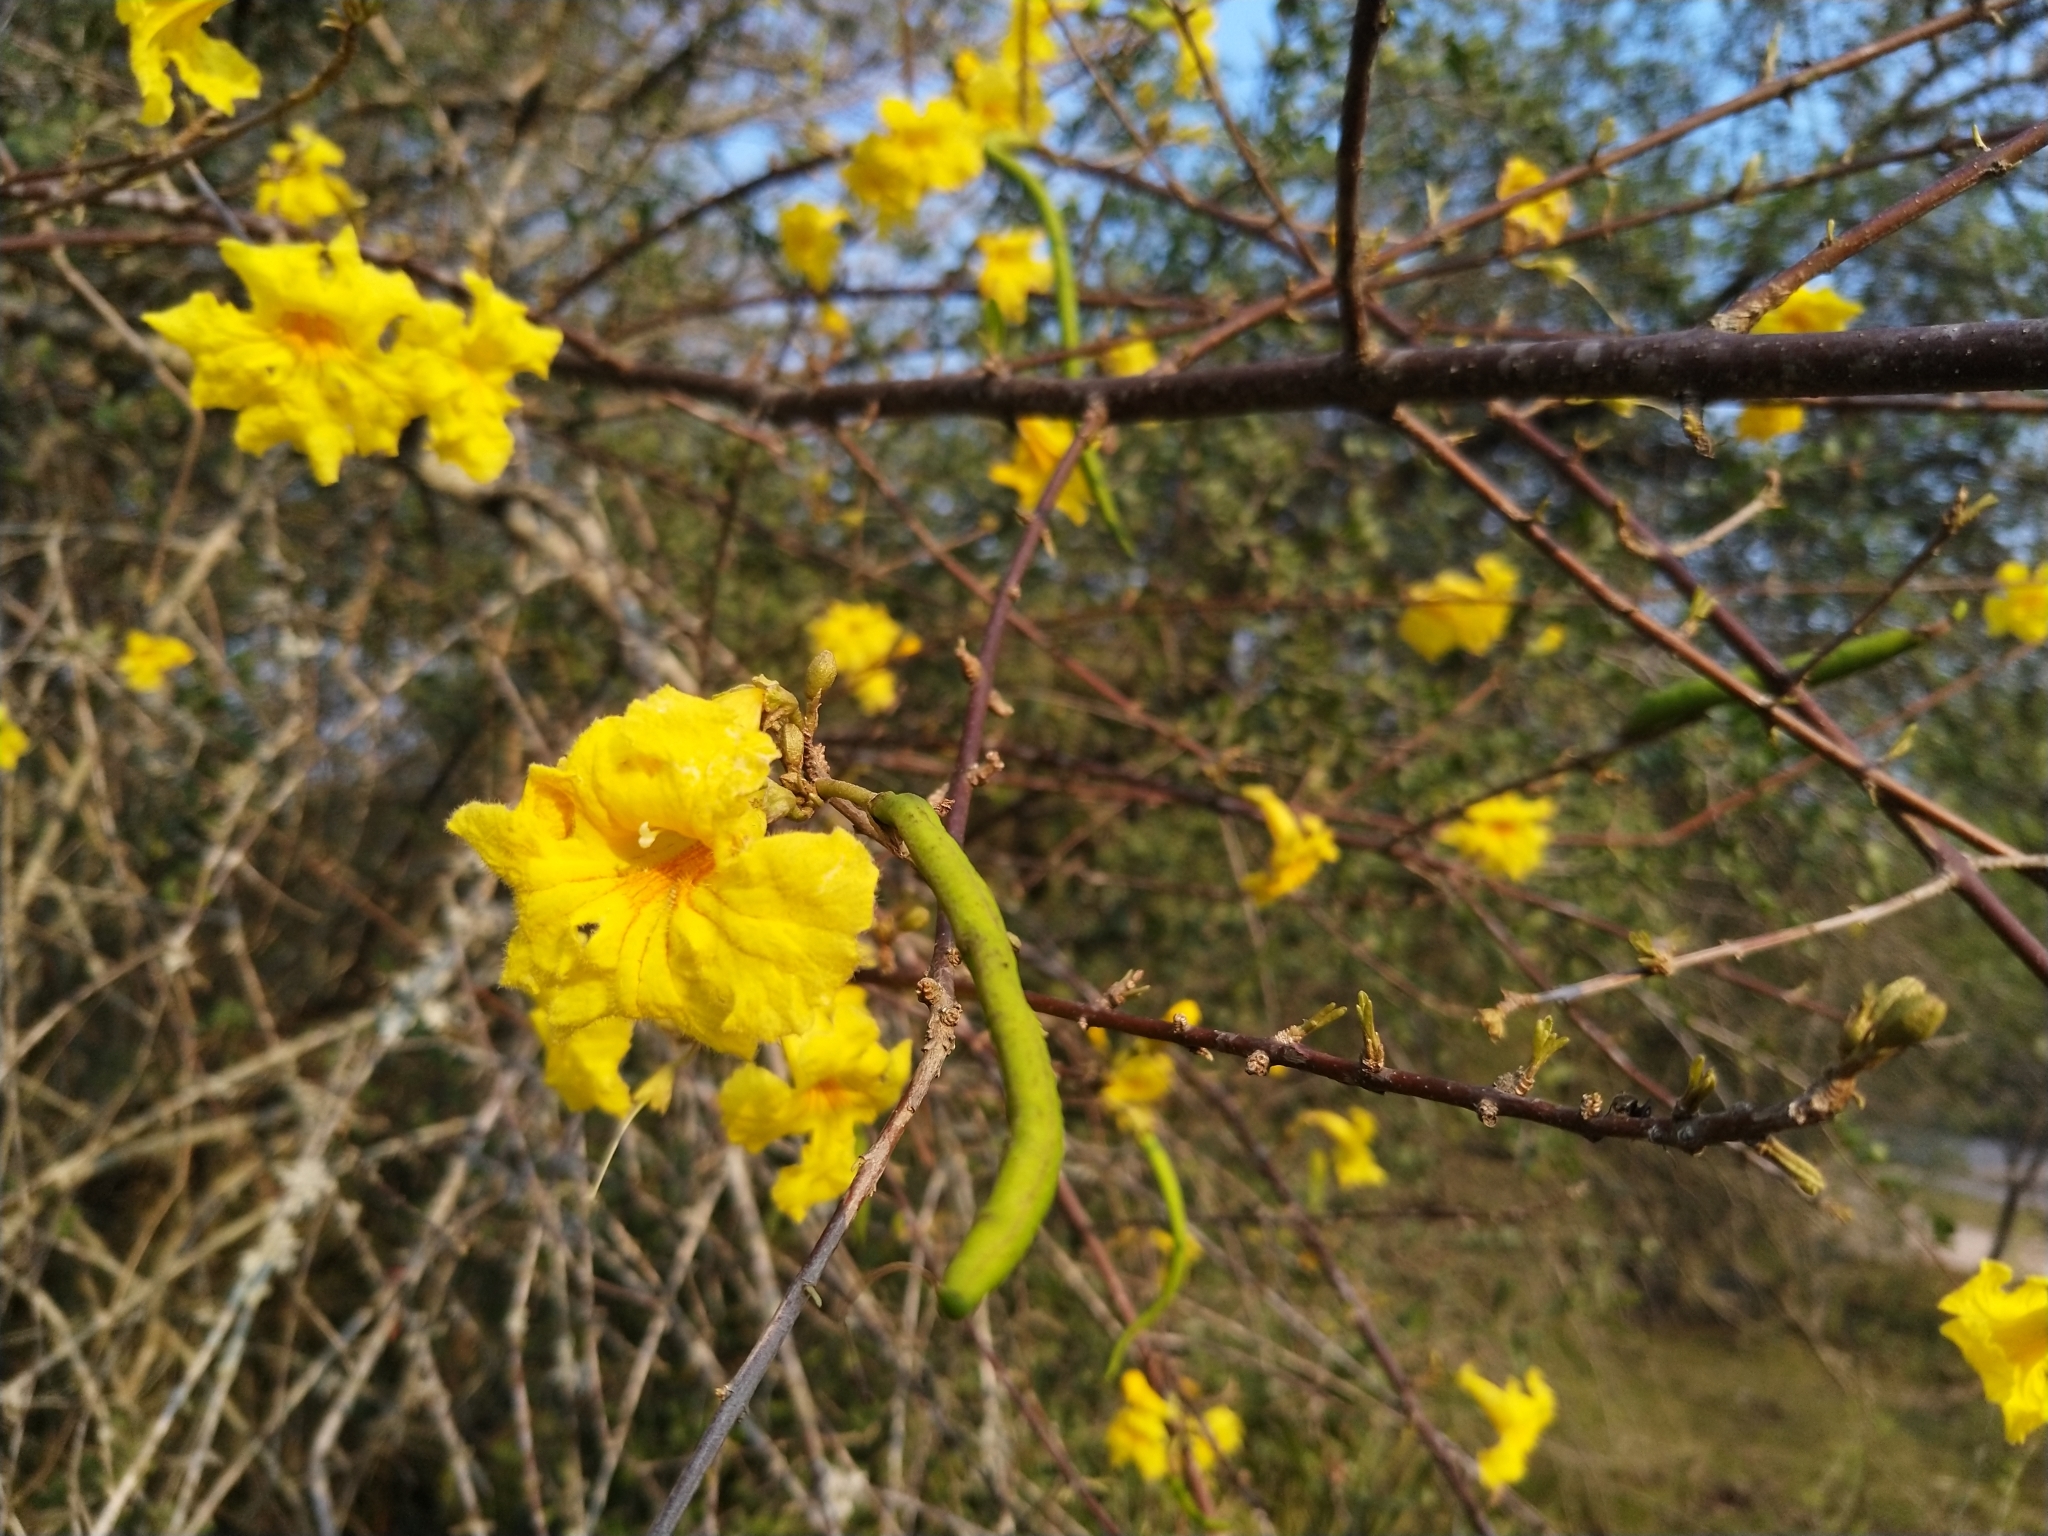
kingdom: Plantae
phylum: Tracheophyta
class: Magnoliopsida
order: Lamiales
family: Bignoniaceae
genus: Tabebuia
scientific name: Tabebuia nodosa
